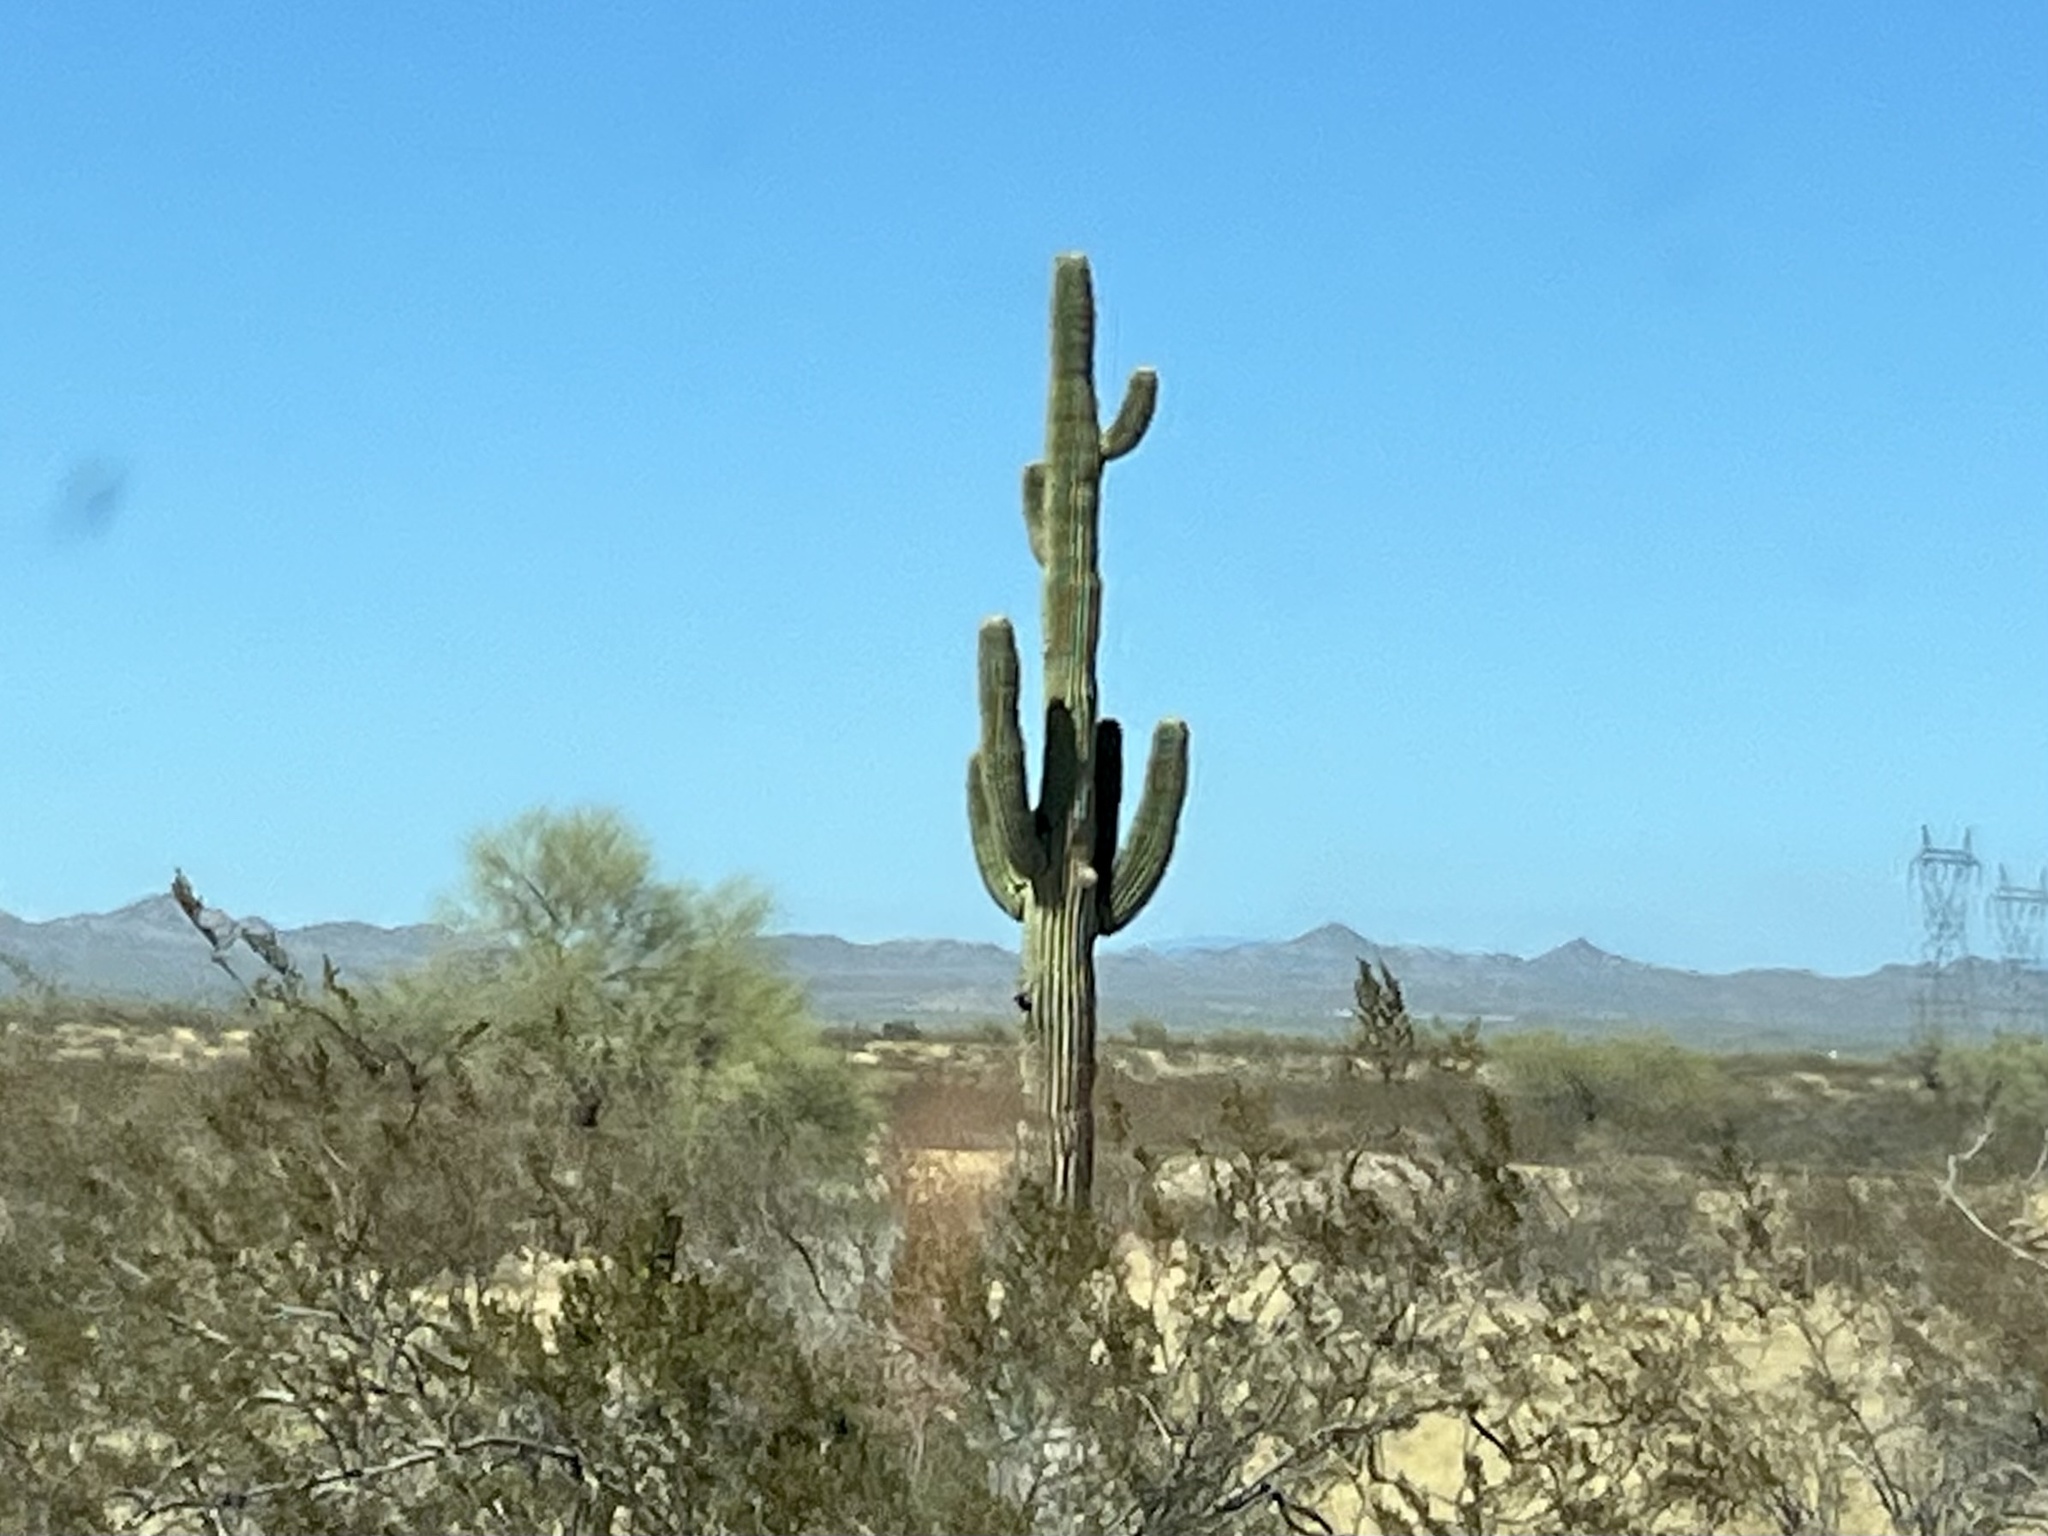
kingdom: Plantae
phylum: Tracheophyta
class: Magnoliopsida
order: Caryophyllales
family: Cactaceae
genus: Carnegiea
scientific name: Carnegiea gigantea
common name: Saguaro
